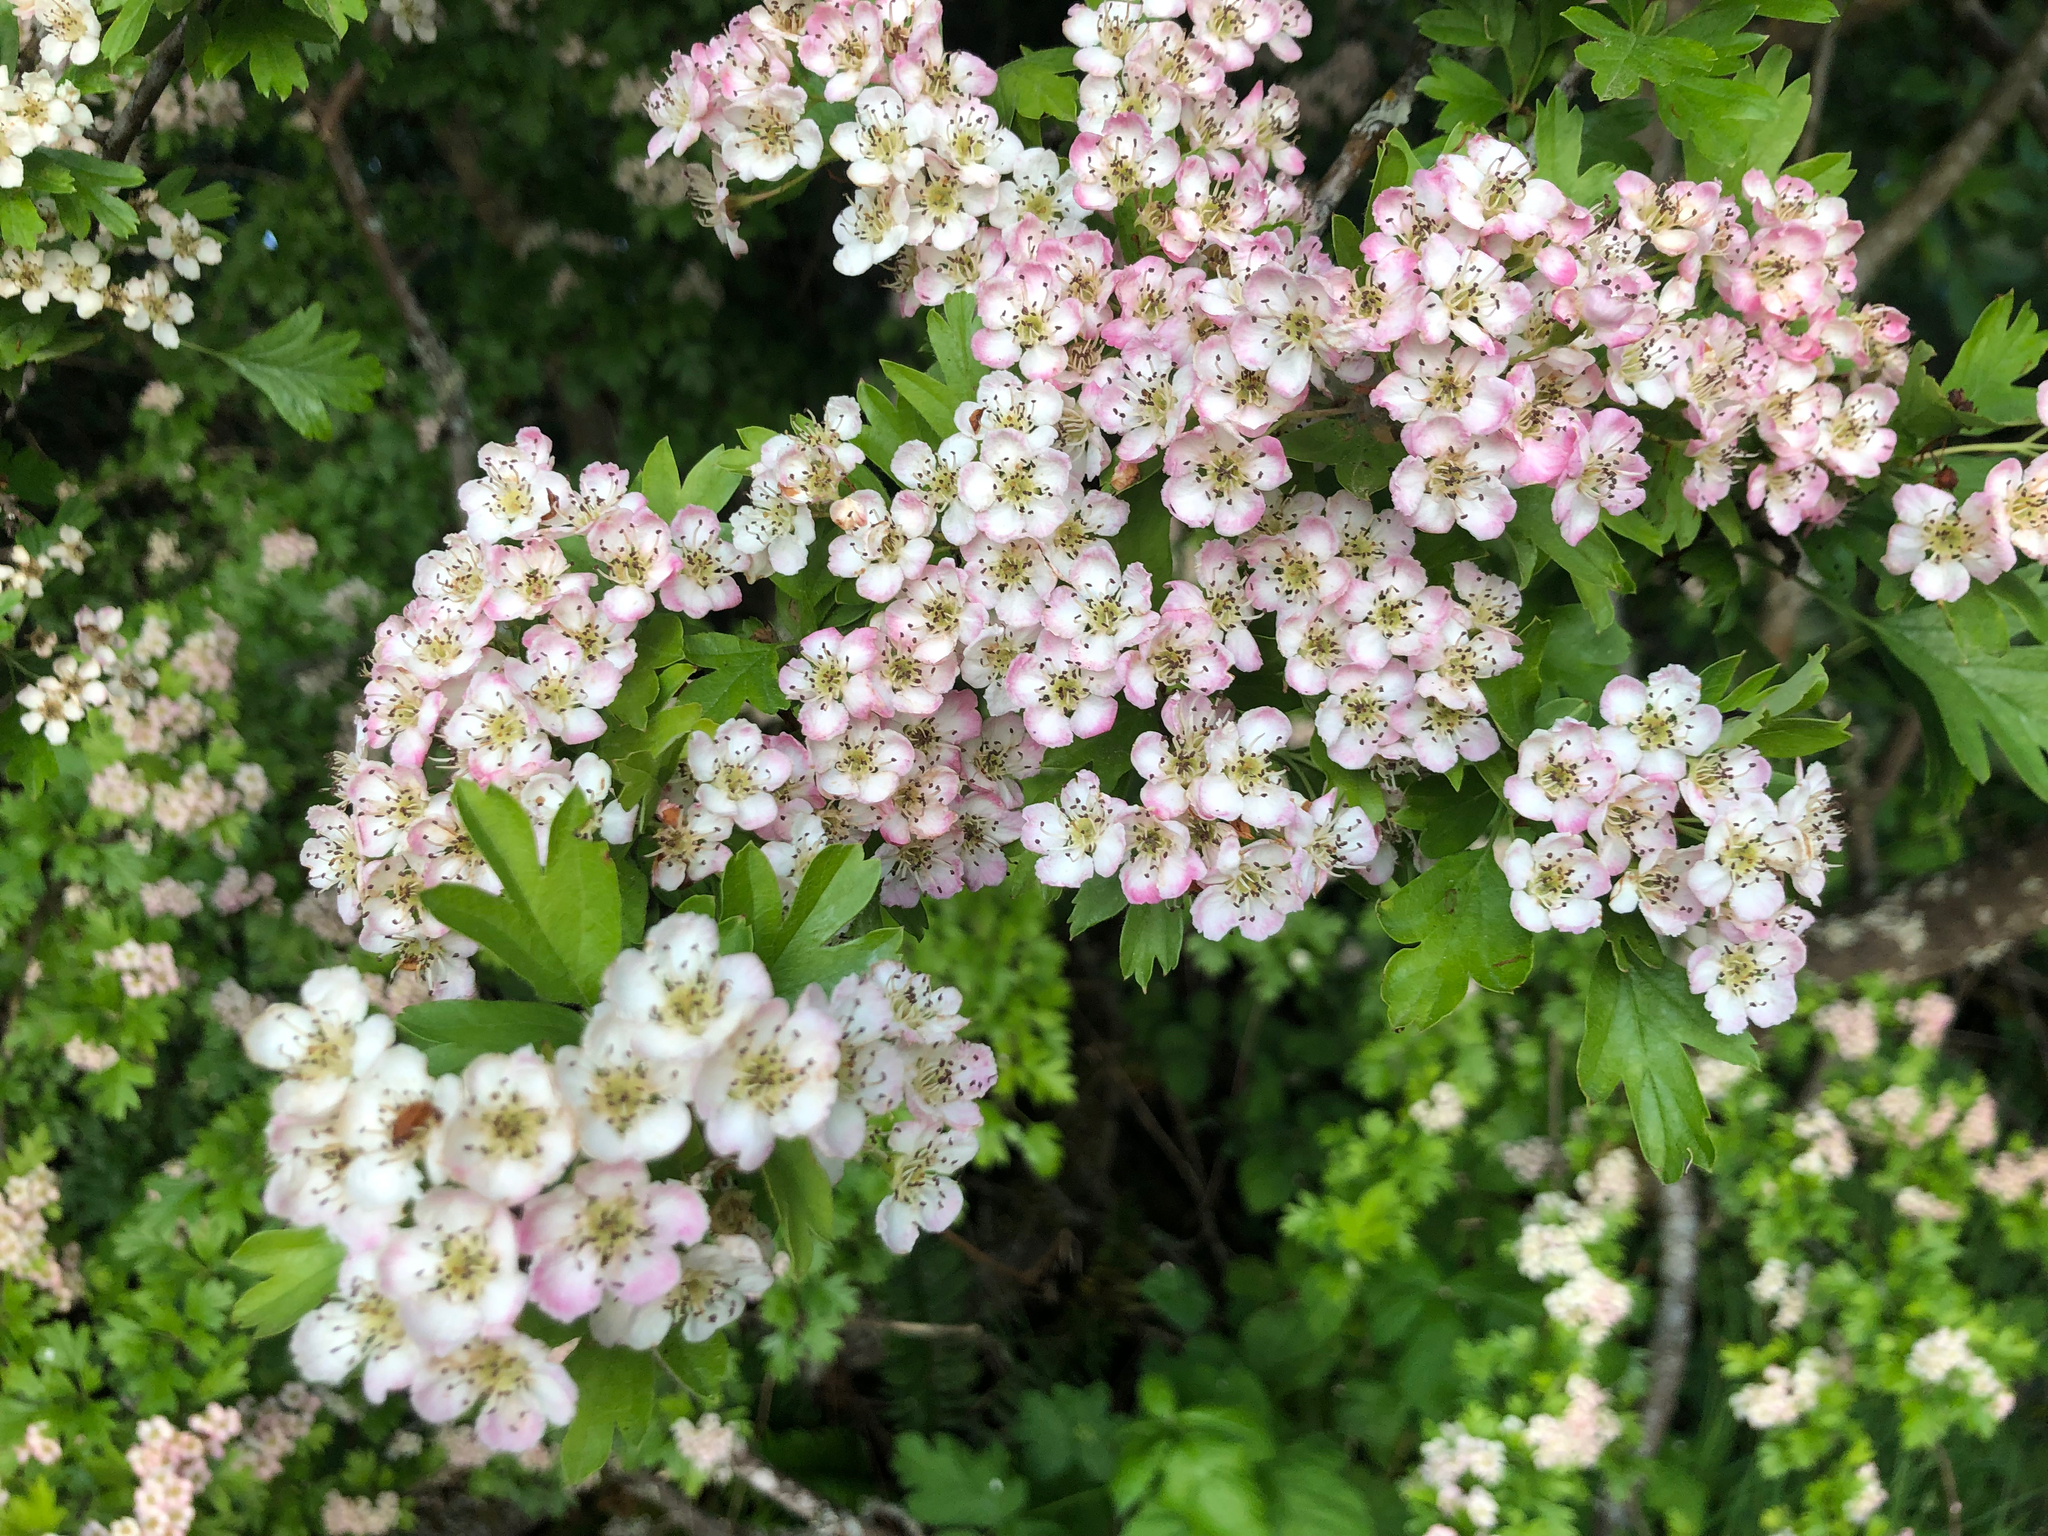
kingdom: Plantae
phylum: Tracheophyta
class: Magnoliopsida
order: Rosales
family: Rosaceae
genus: Crataegus
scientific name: Crataegus monogyna
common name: Hawthorn
